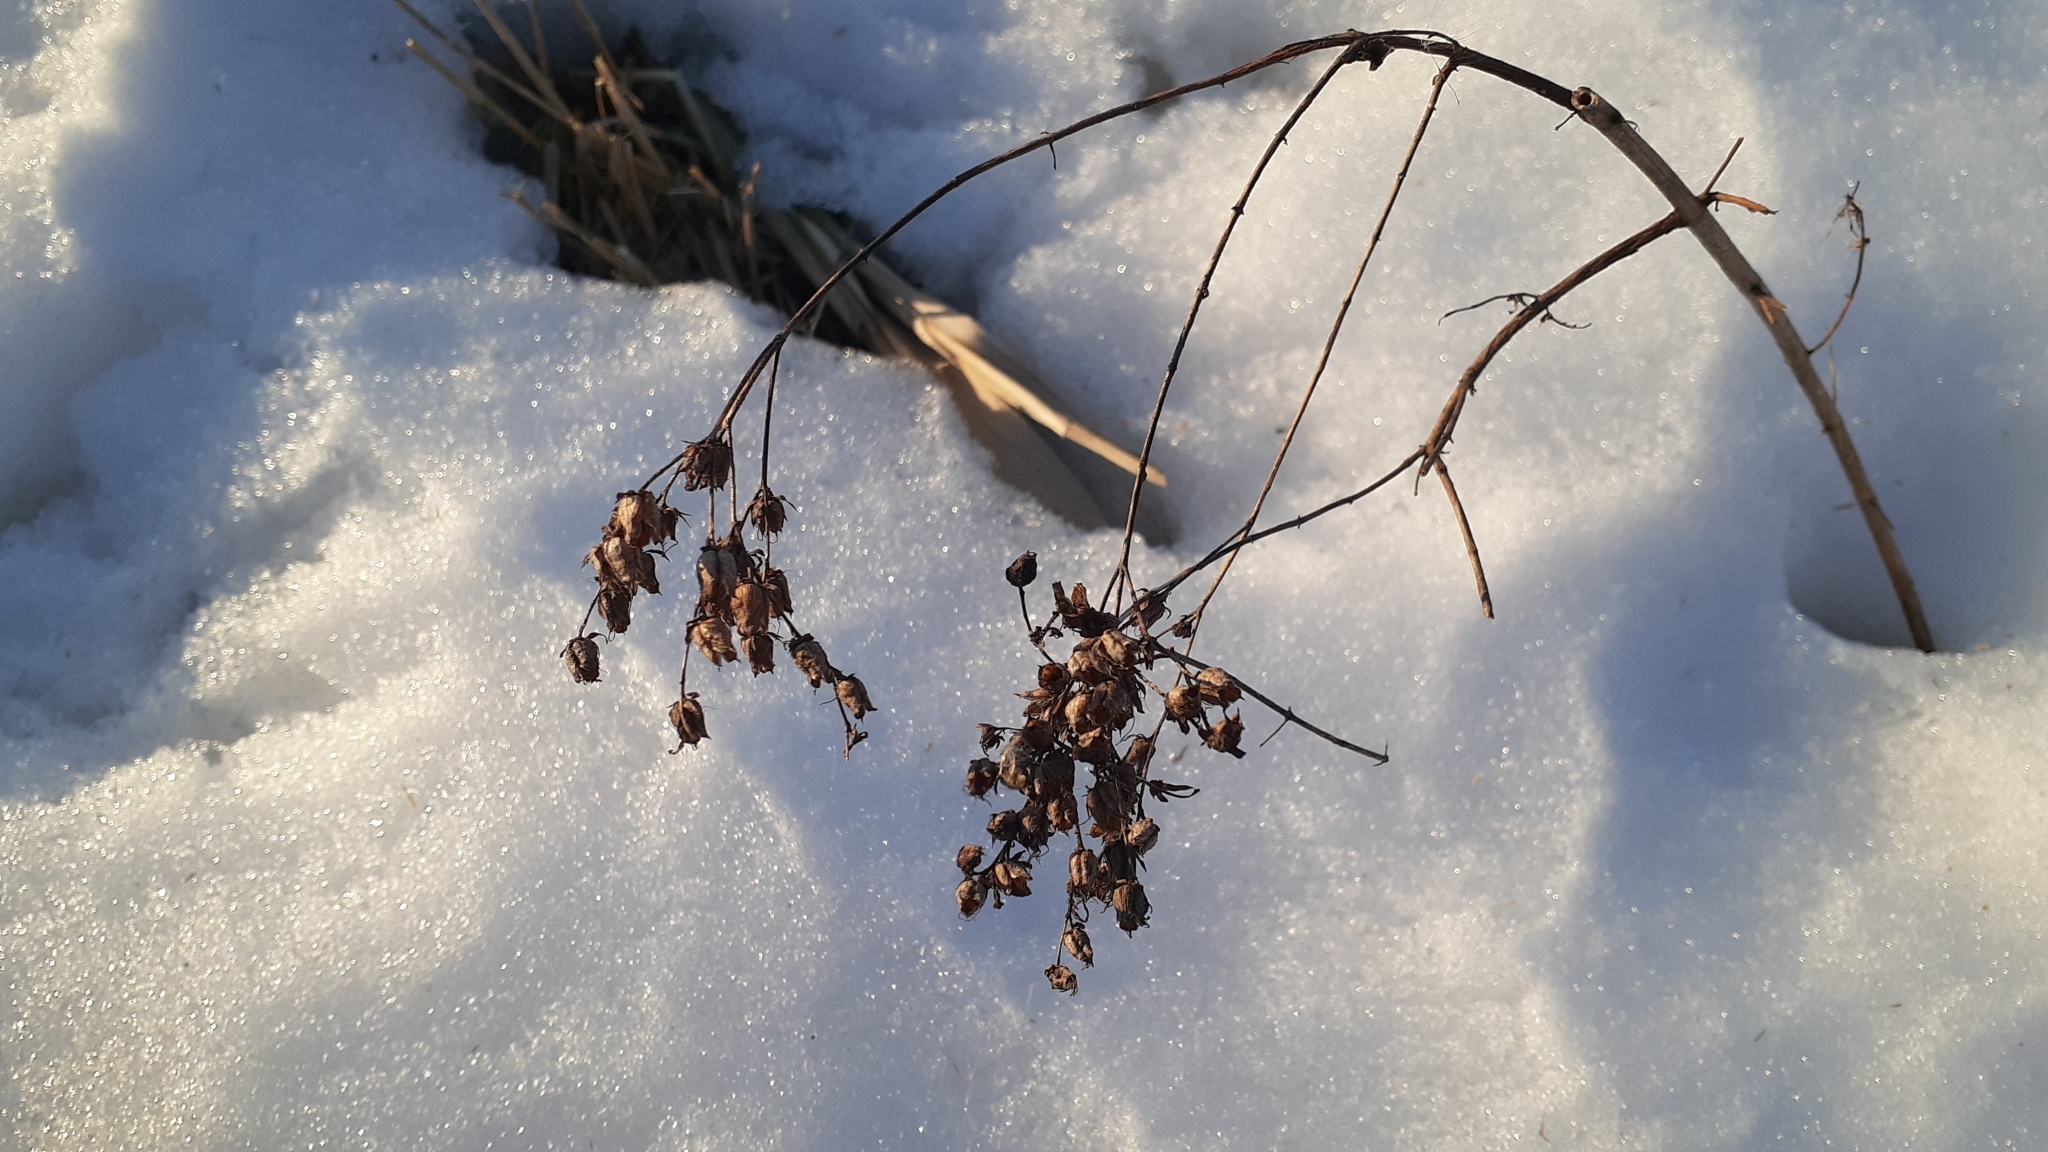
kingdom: Plantae
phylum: Tracheophyta
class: Magnoliopsida
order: Malpighiales
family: Hypericaceae
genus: Hypericum
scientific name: Hypericum perforatum
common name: Common st. johnswort
